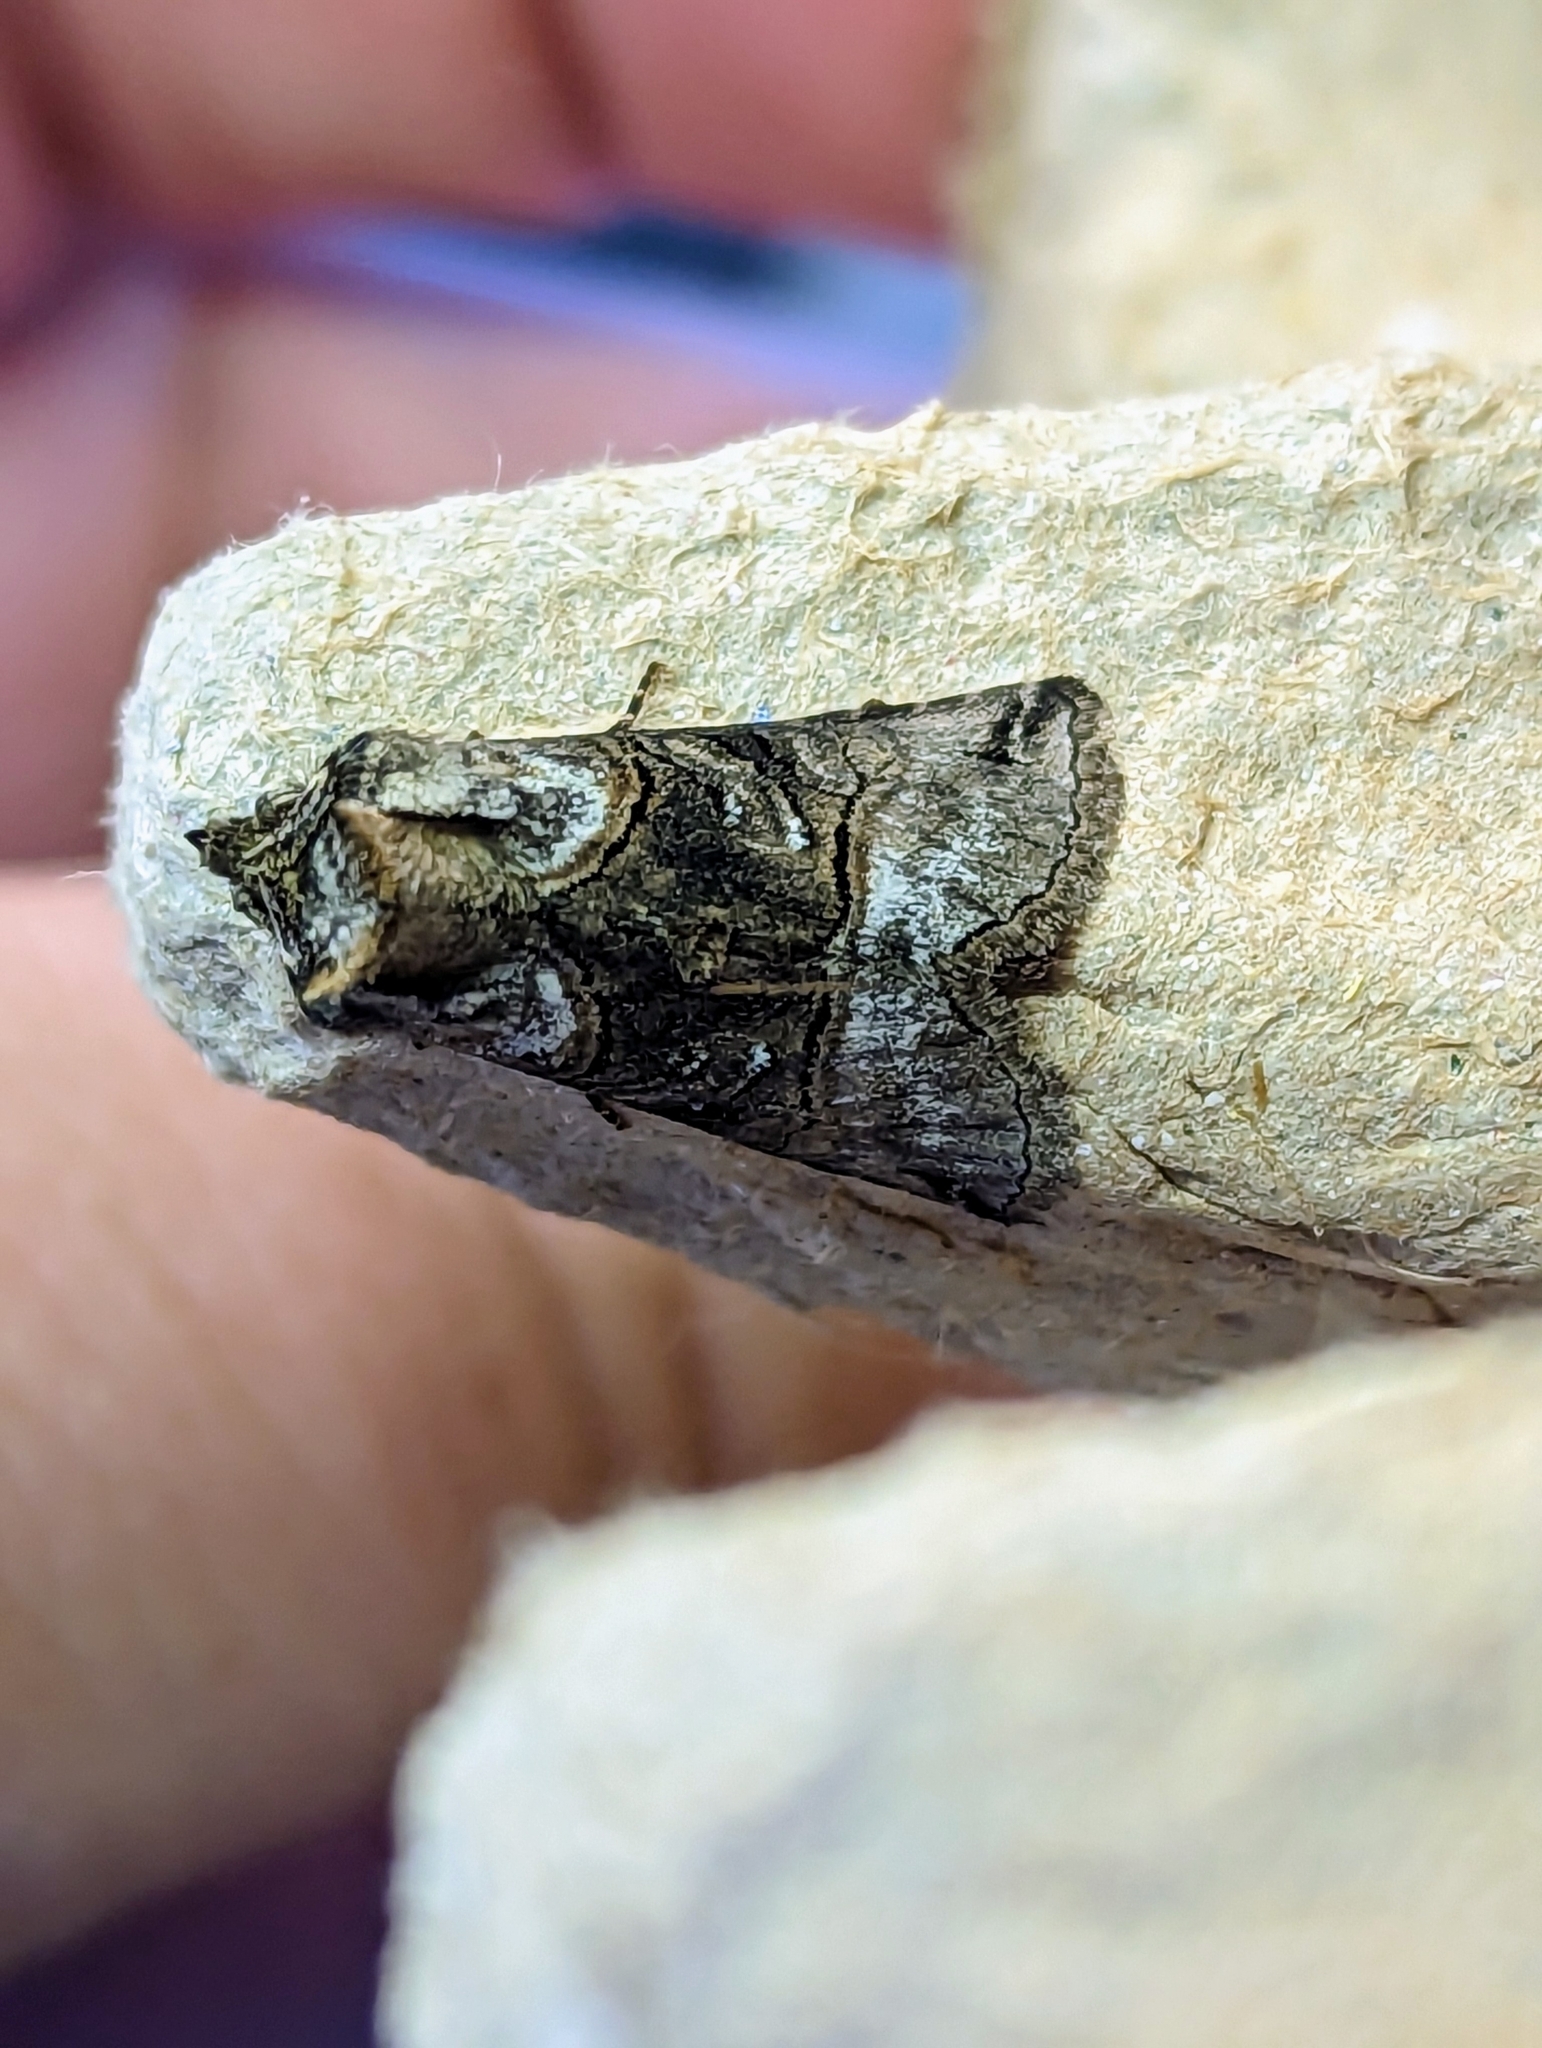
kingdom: Animalia
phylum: Arthropoda
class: Insecta
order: Lepidoptera
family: Noctuidae
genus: Abrostola
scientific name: Abrostola tripartita
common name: Spectacle
